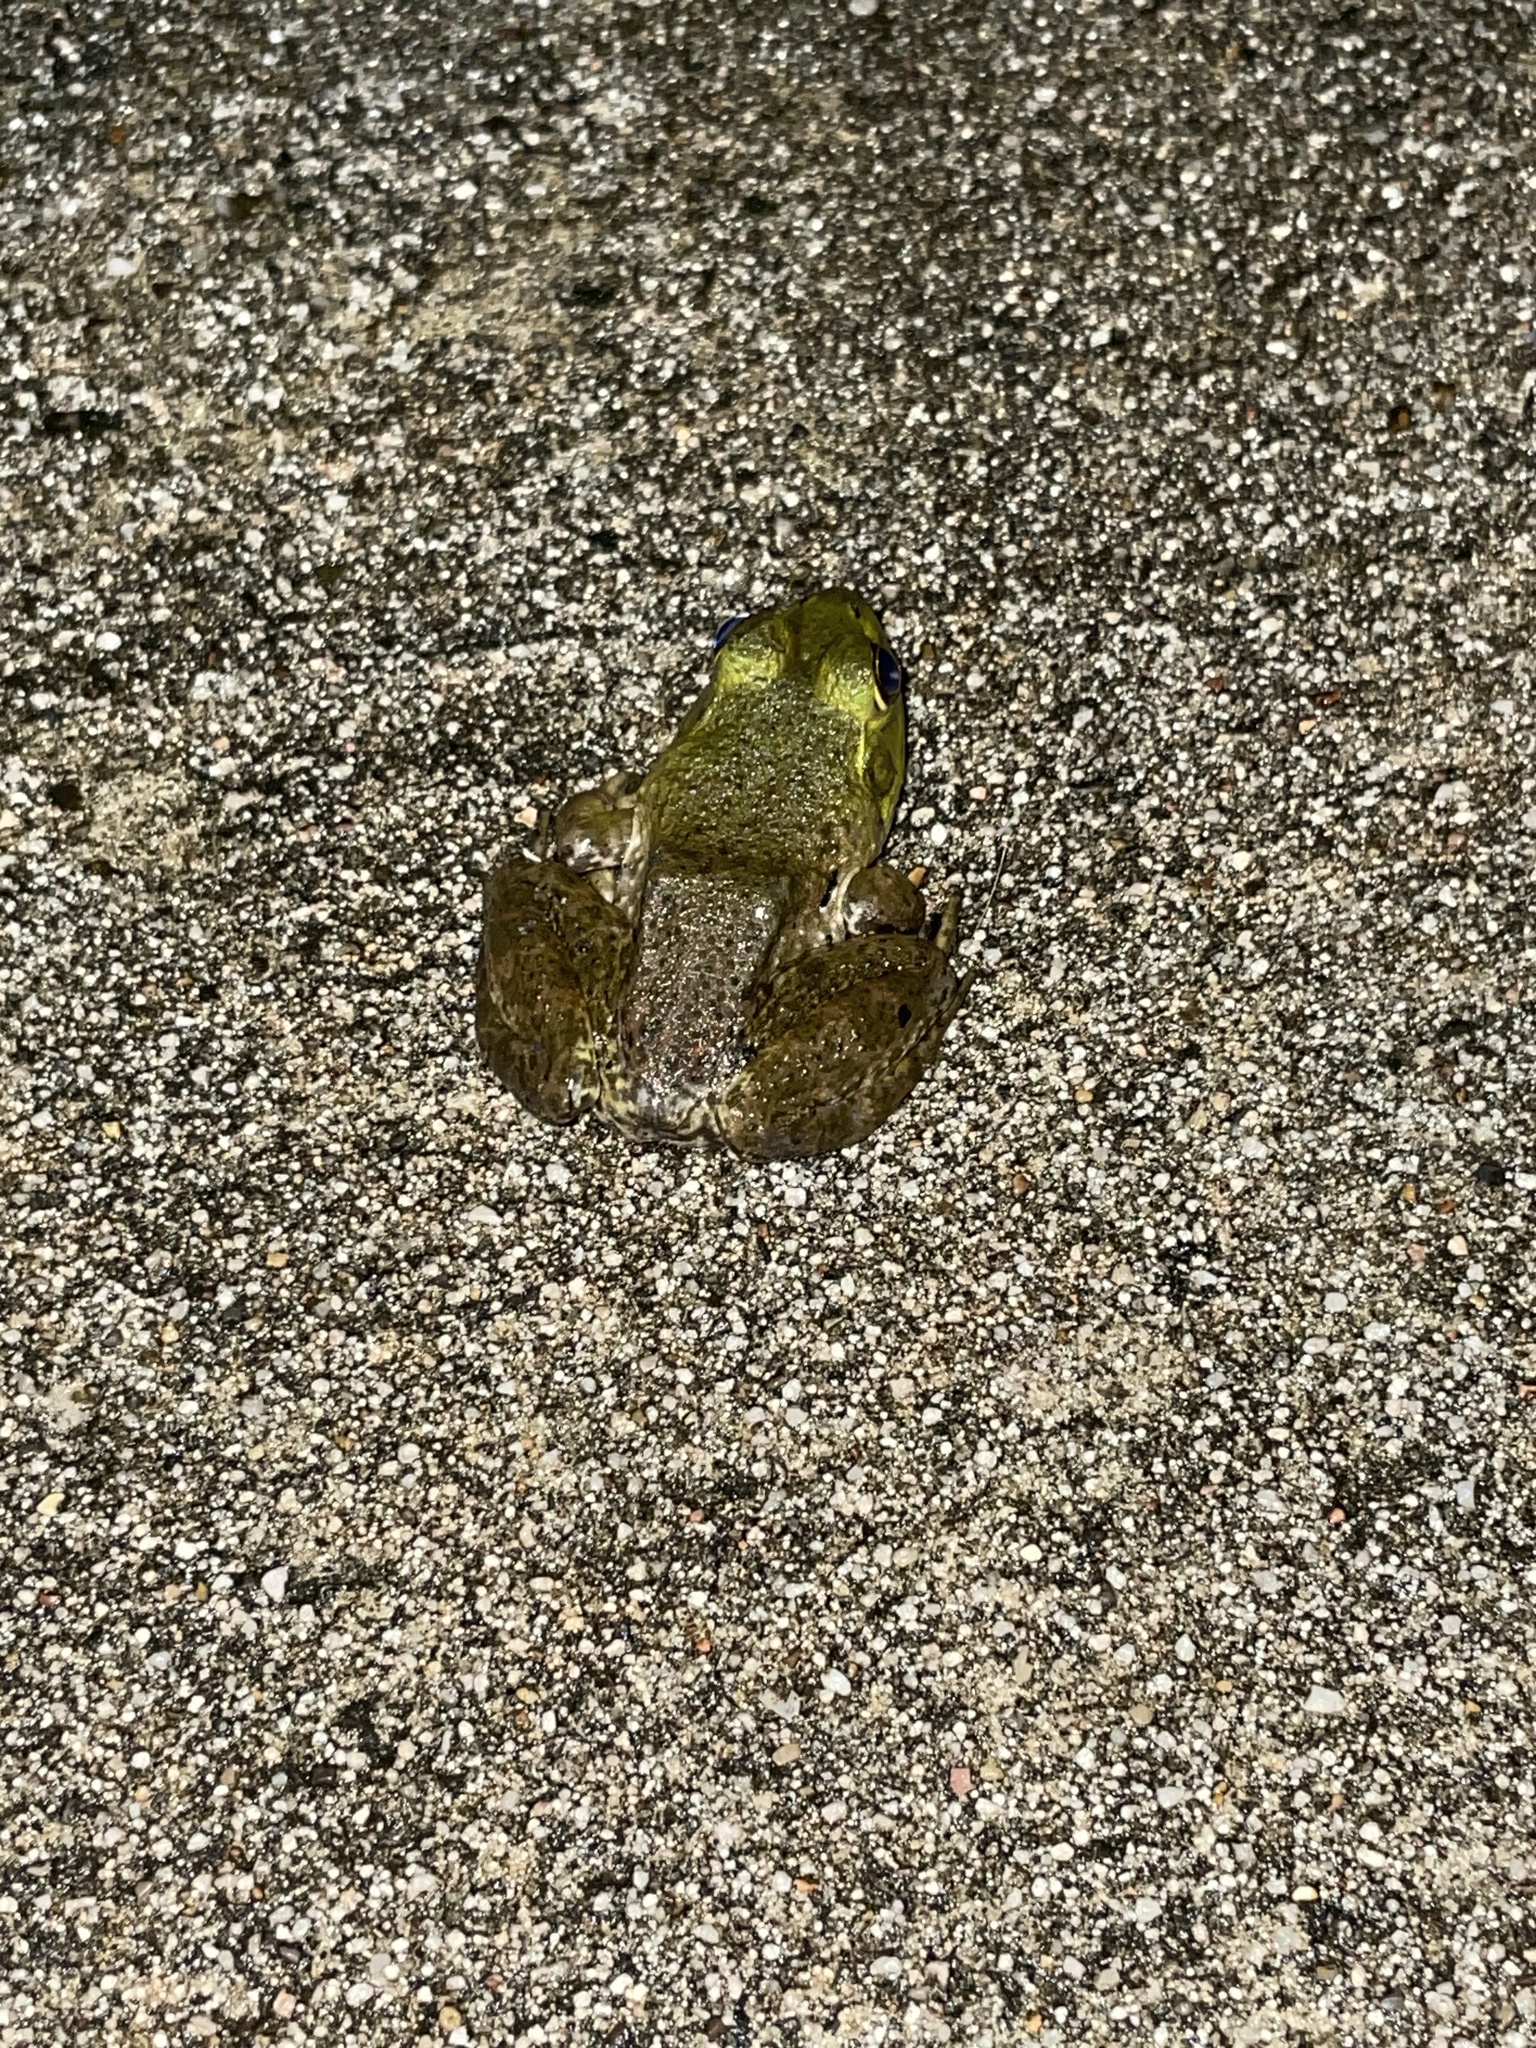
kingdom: Animalia
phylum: Chordata
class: Amphibia
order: Anura
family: Ranidae
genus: Lithobates
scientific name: Lithobates catesbeianus
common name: American bullfrog
